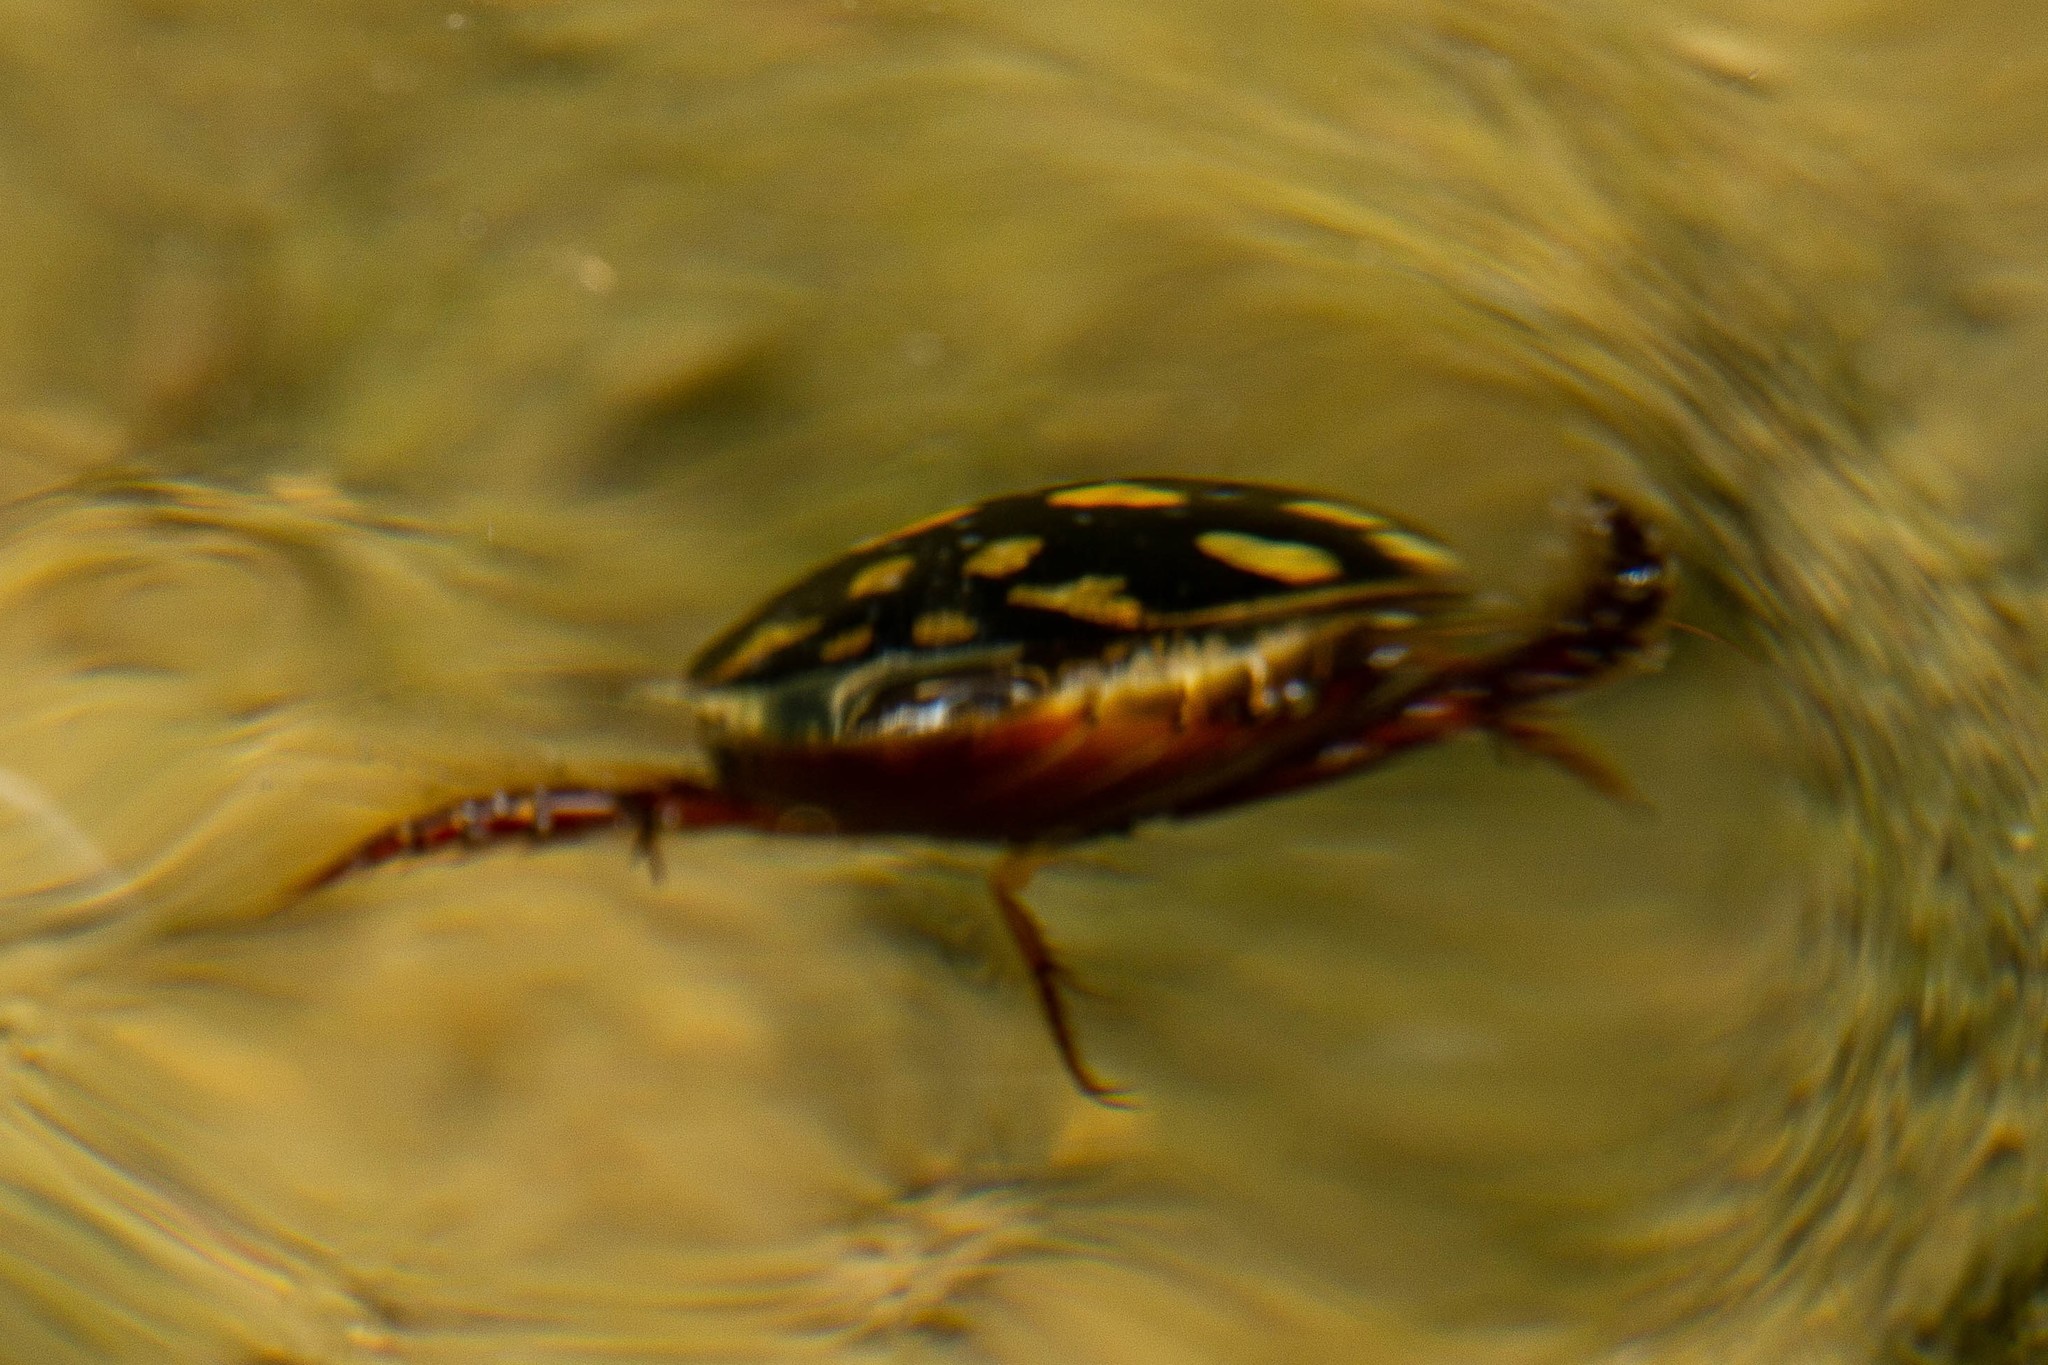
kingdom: Animalia
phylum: Arthropoda
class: Insecta
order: Coleoptera
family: Dytiscidae
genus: Thermonectus
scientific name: Thermonectus marmoratus
